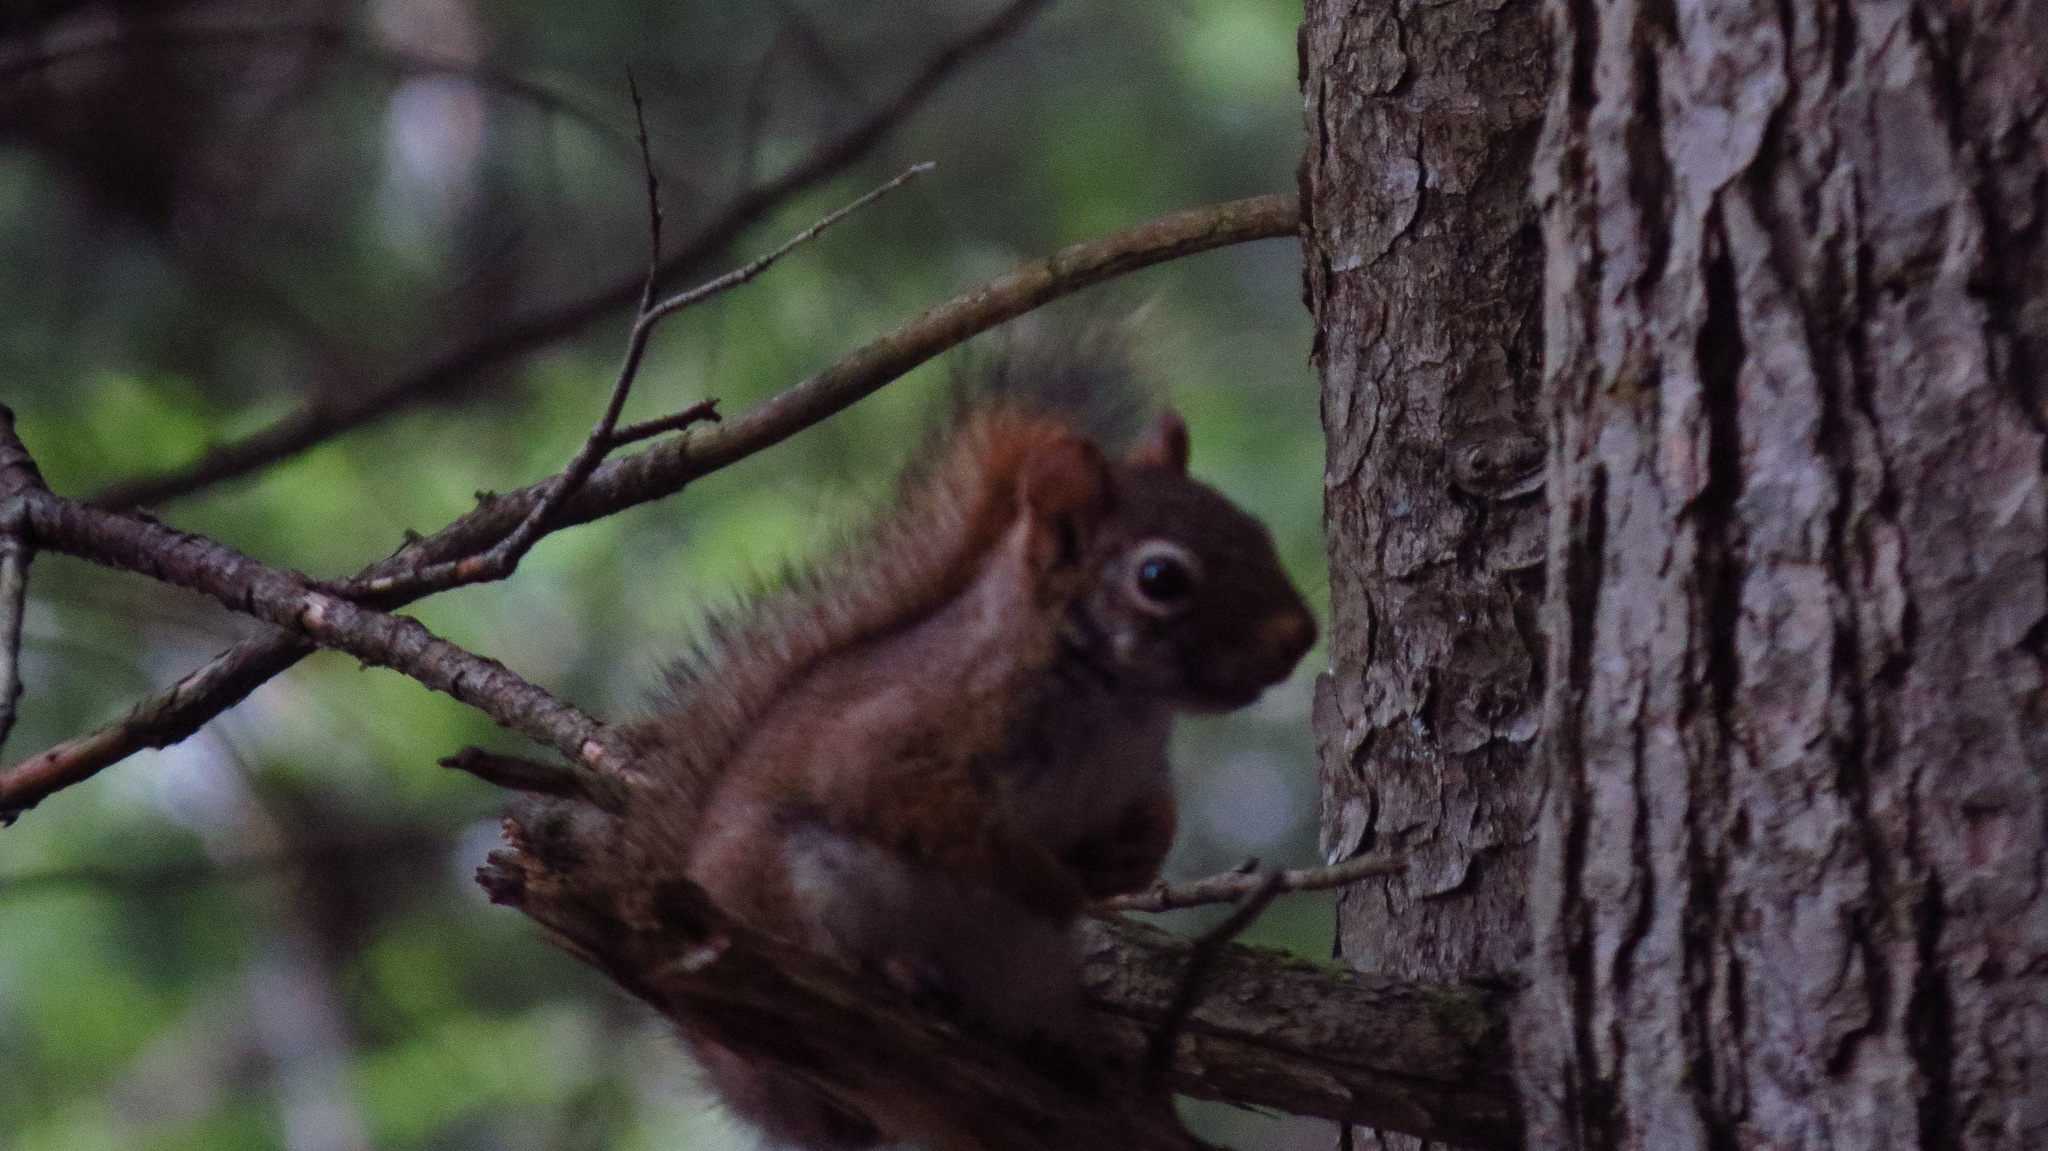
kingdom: Animalia
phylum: Chordata
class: Mammalia
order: Rodentia
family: Sciuridae
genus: Tamiasciurus
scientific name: Tamiasciurus hudsonicus
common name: Red squirrel
